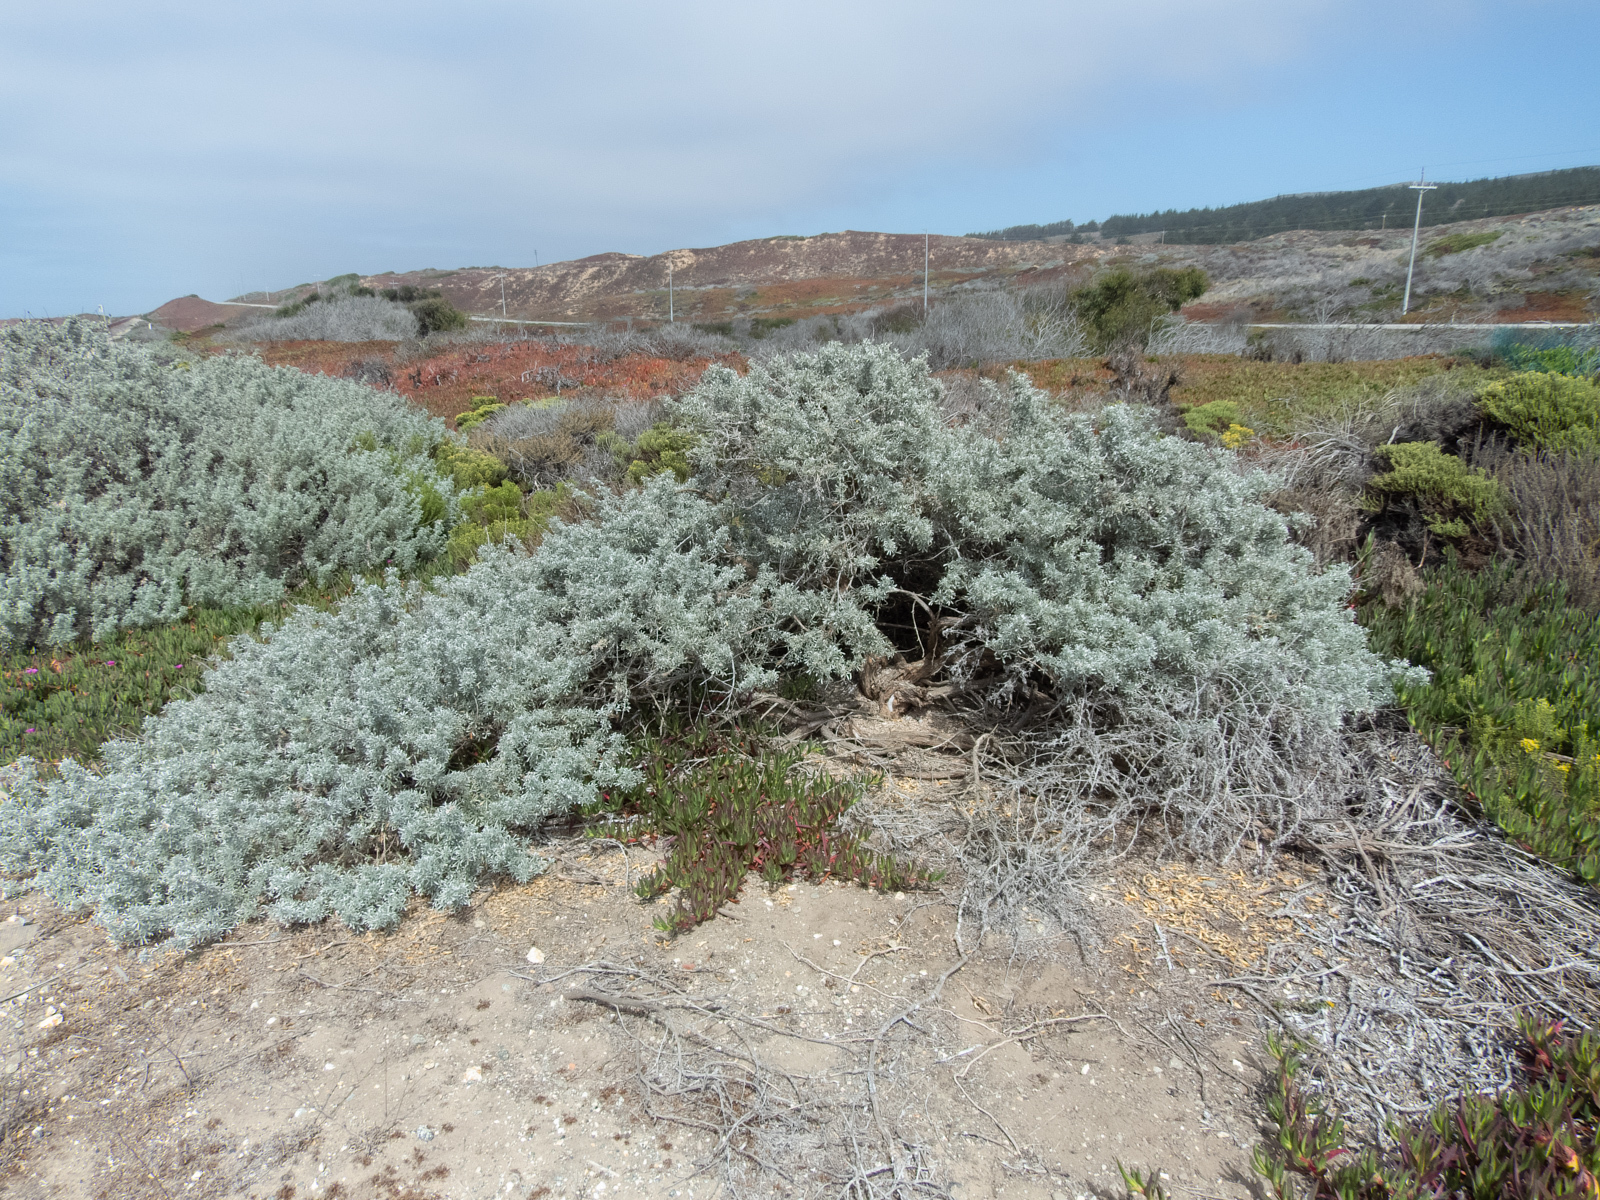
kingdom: Plantae
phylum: Tracheophyta
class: Magnoliopsida
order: Fabales
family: Fabaceae
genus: Lupinus
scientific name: Lupinus chamissonis
